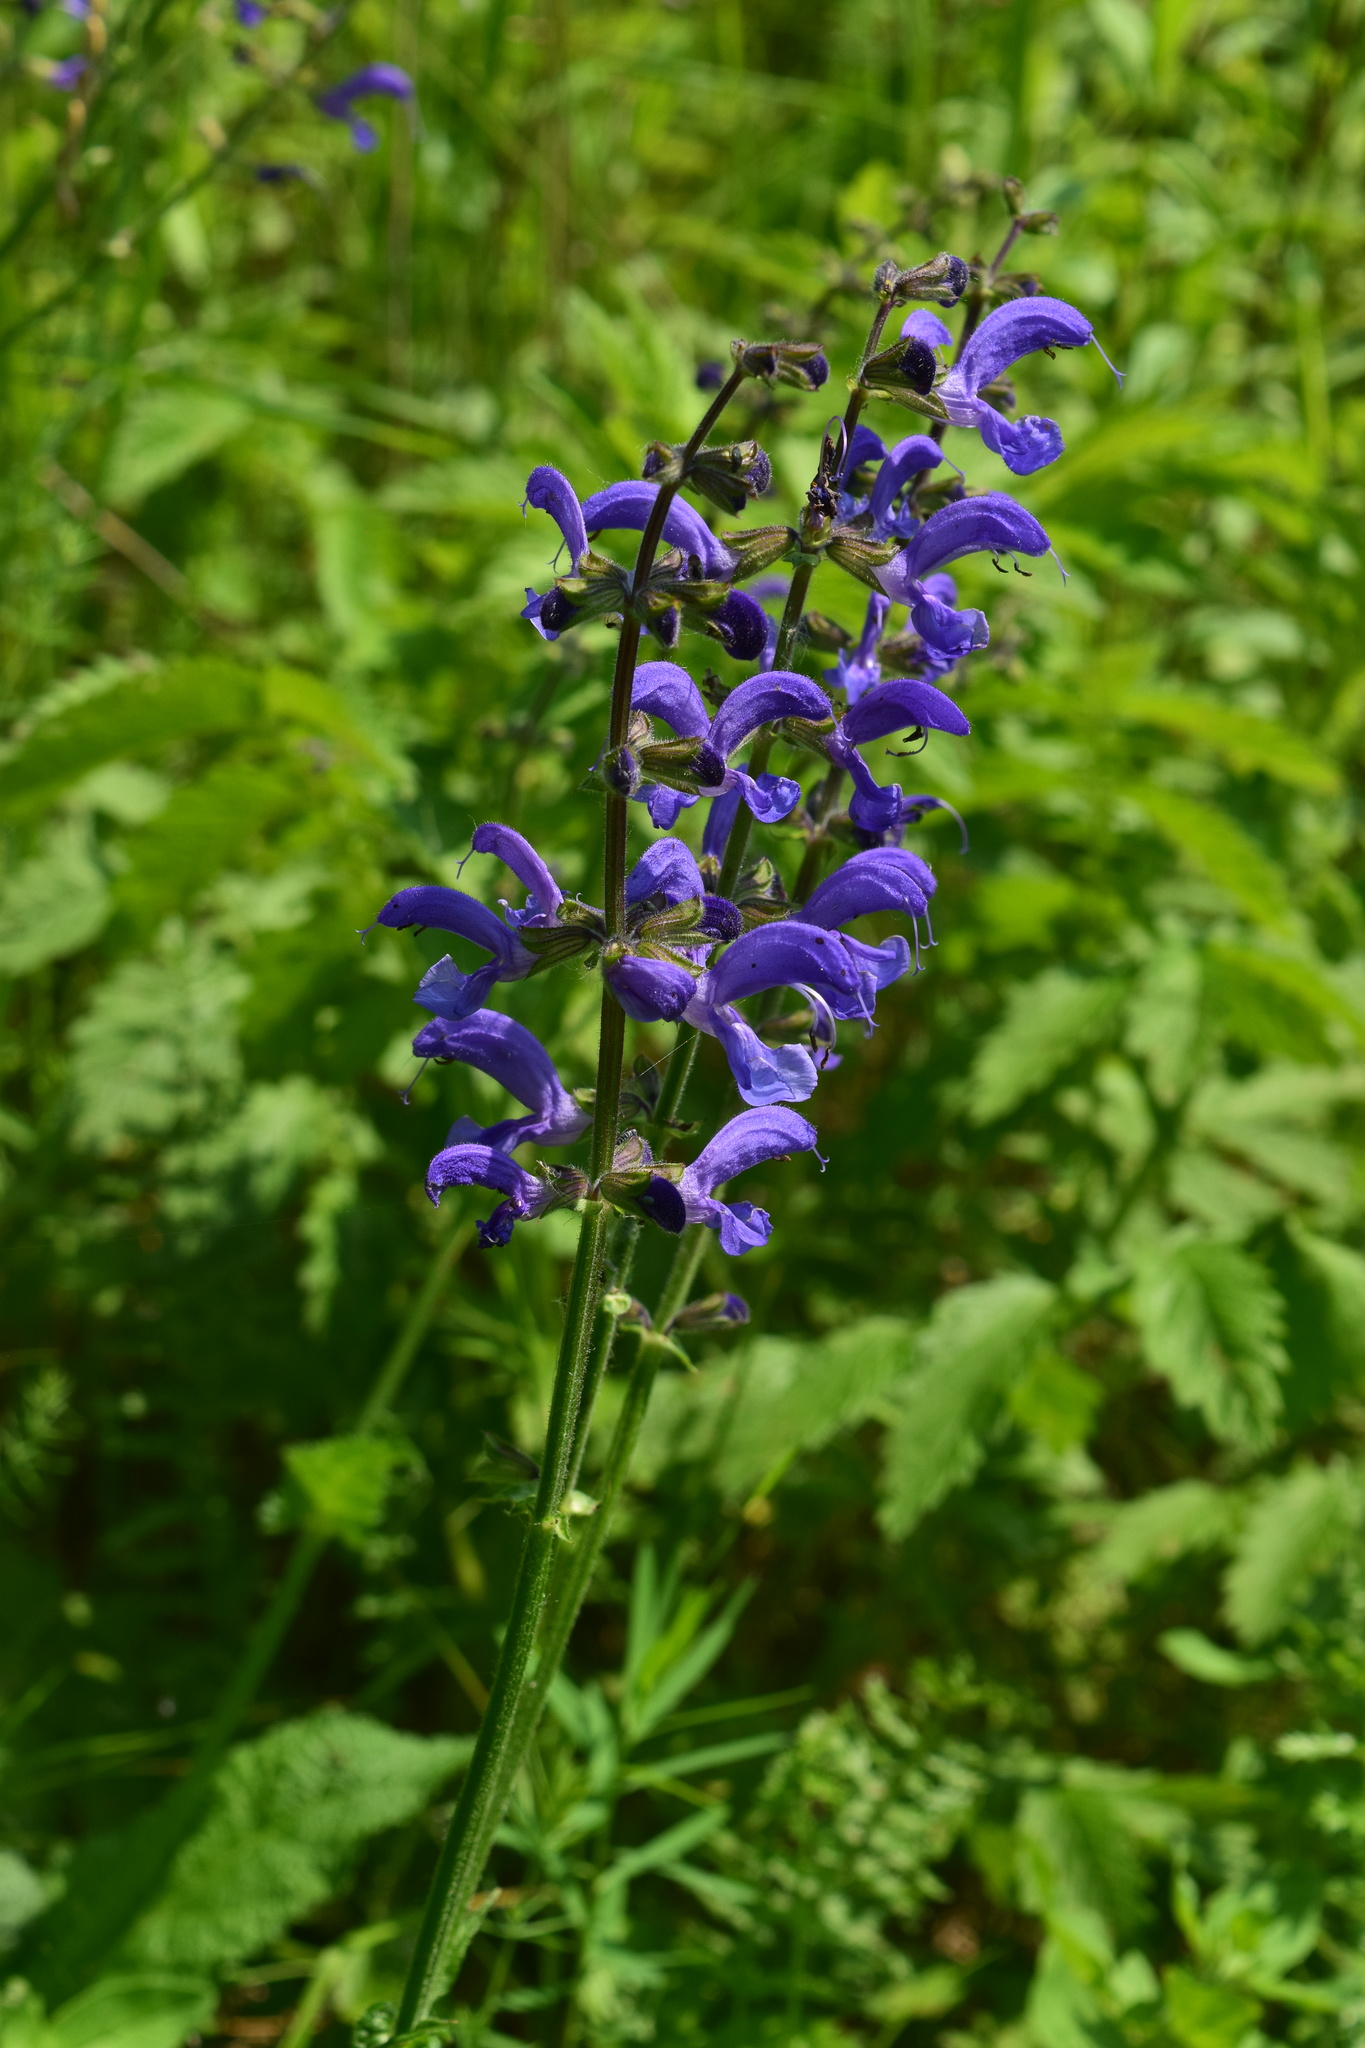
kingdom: Plantae
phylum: Tracheophyta
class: Magnoliopsida
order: Lamiales
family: Lamiaceae
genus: Salvia
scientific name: Salvia pratensis
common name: Meadow sage
